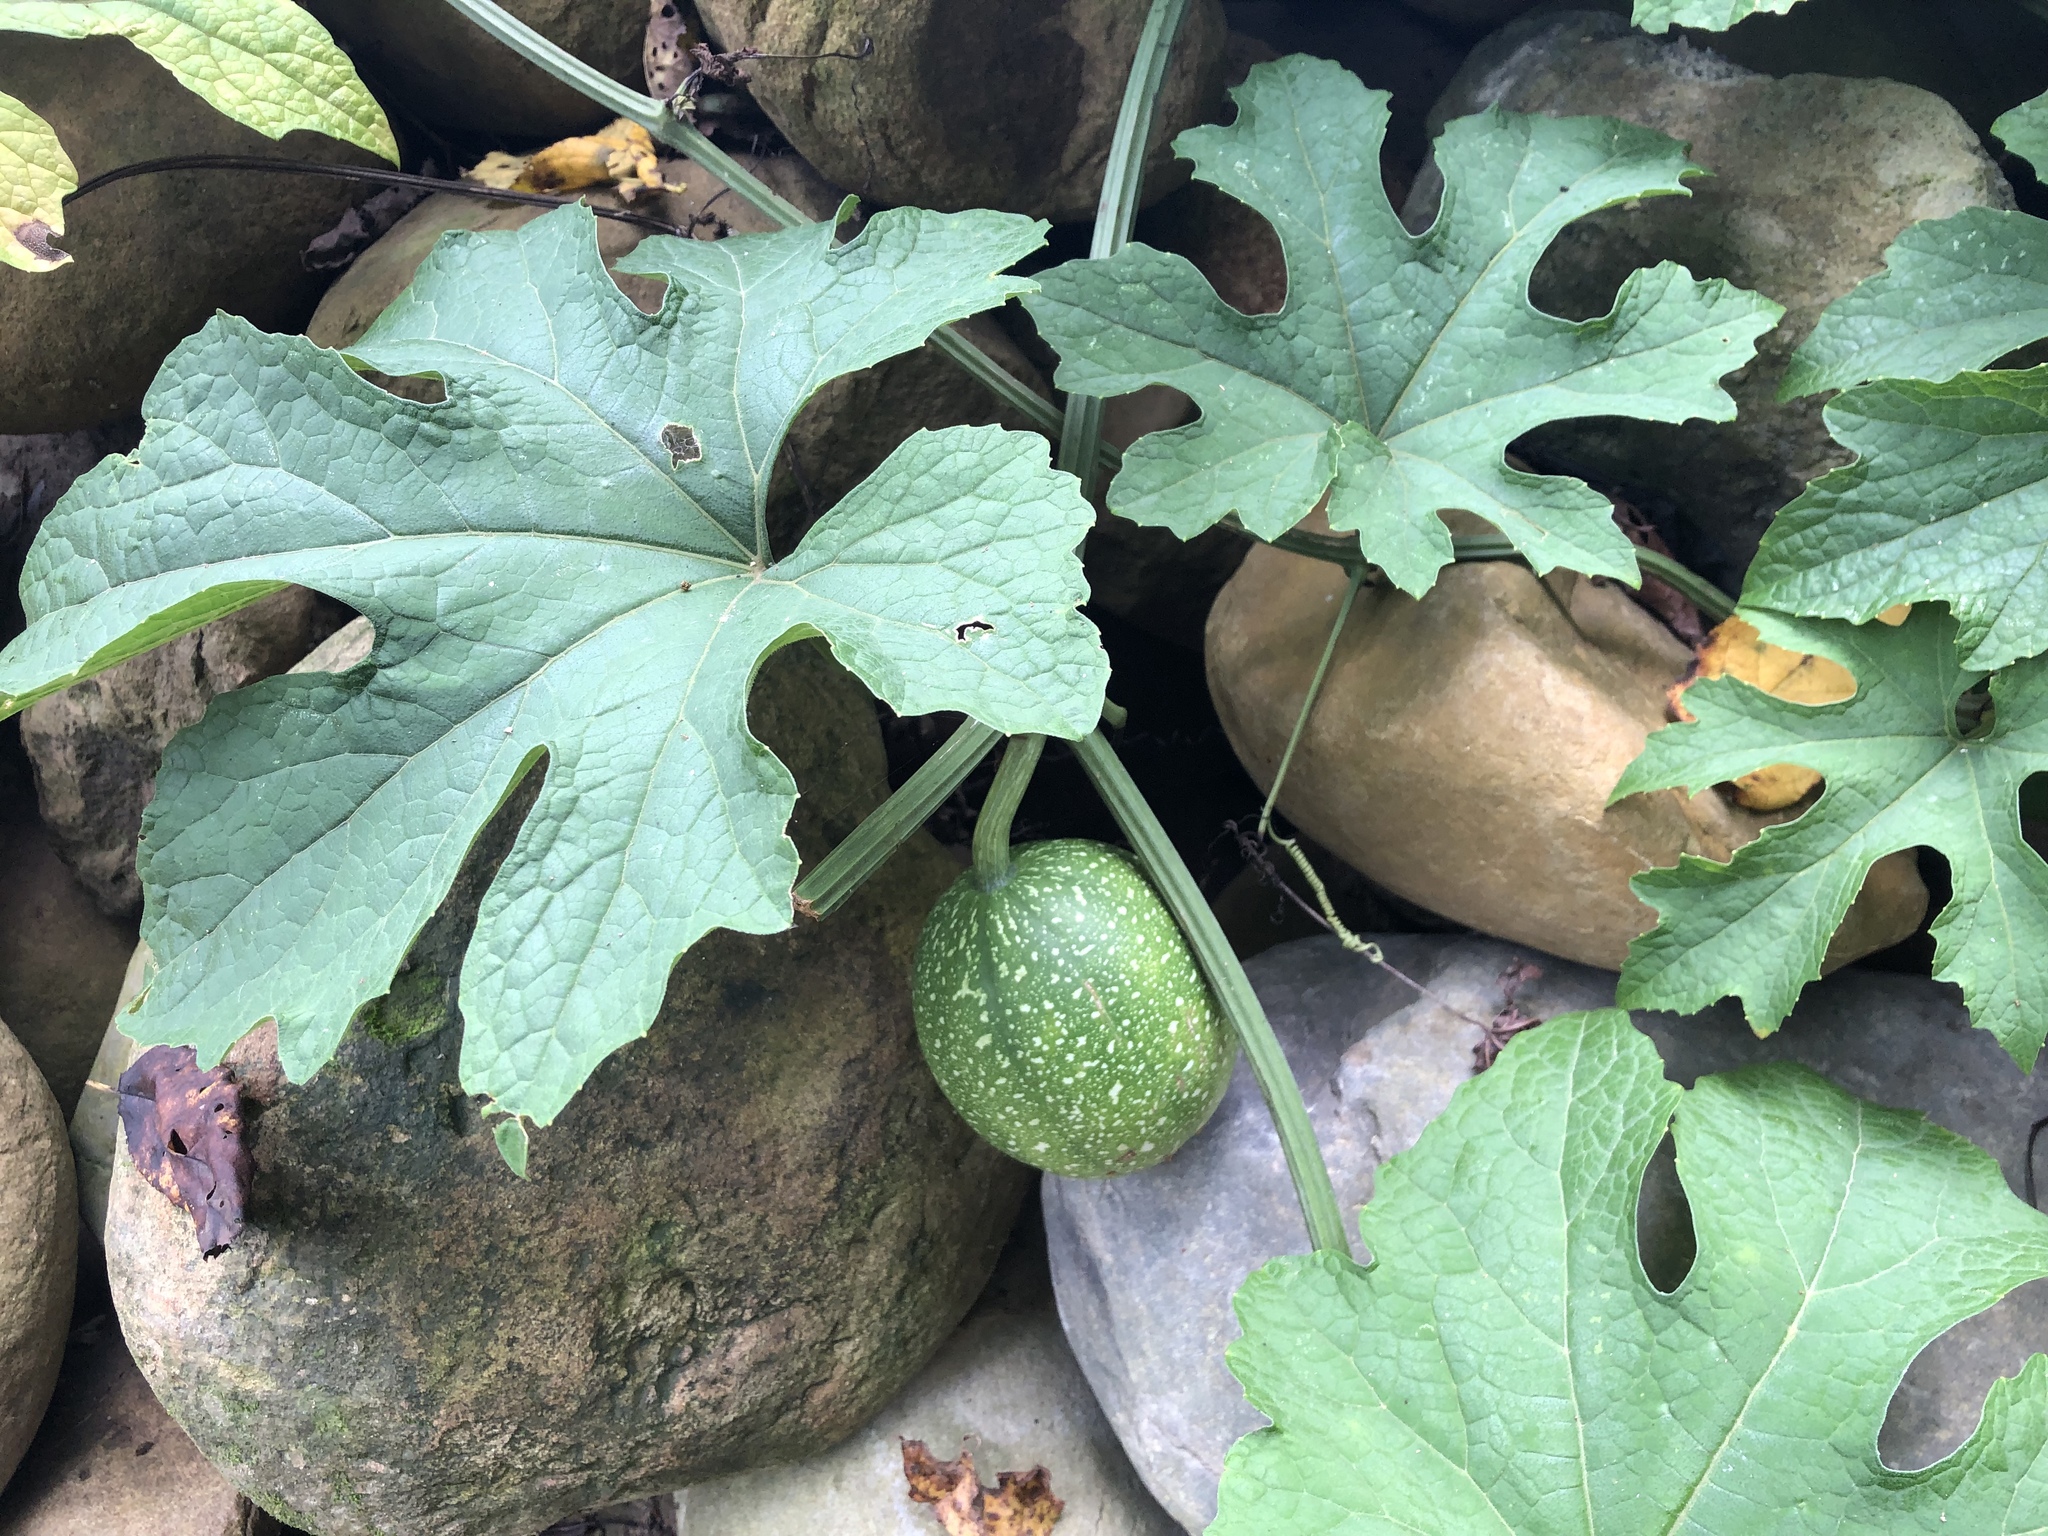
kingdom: Plantae
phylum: Tracheophyta
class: Magnoliopsida
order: Cucurbitales
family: Cucurbitaceae
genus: Trichosanthes
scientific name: Trichosanthes laceribractea
